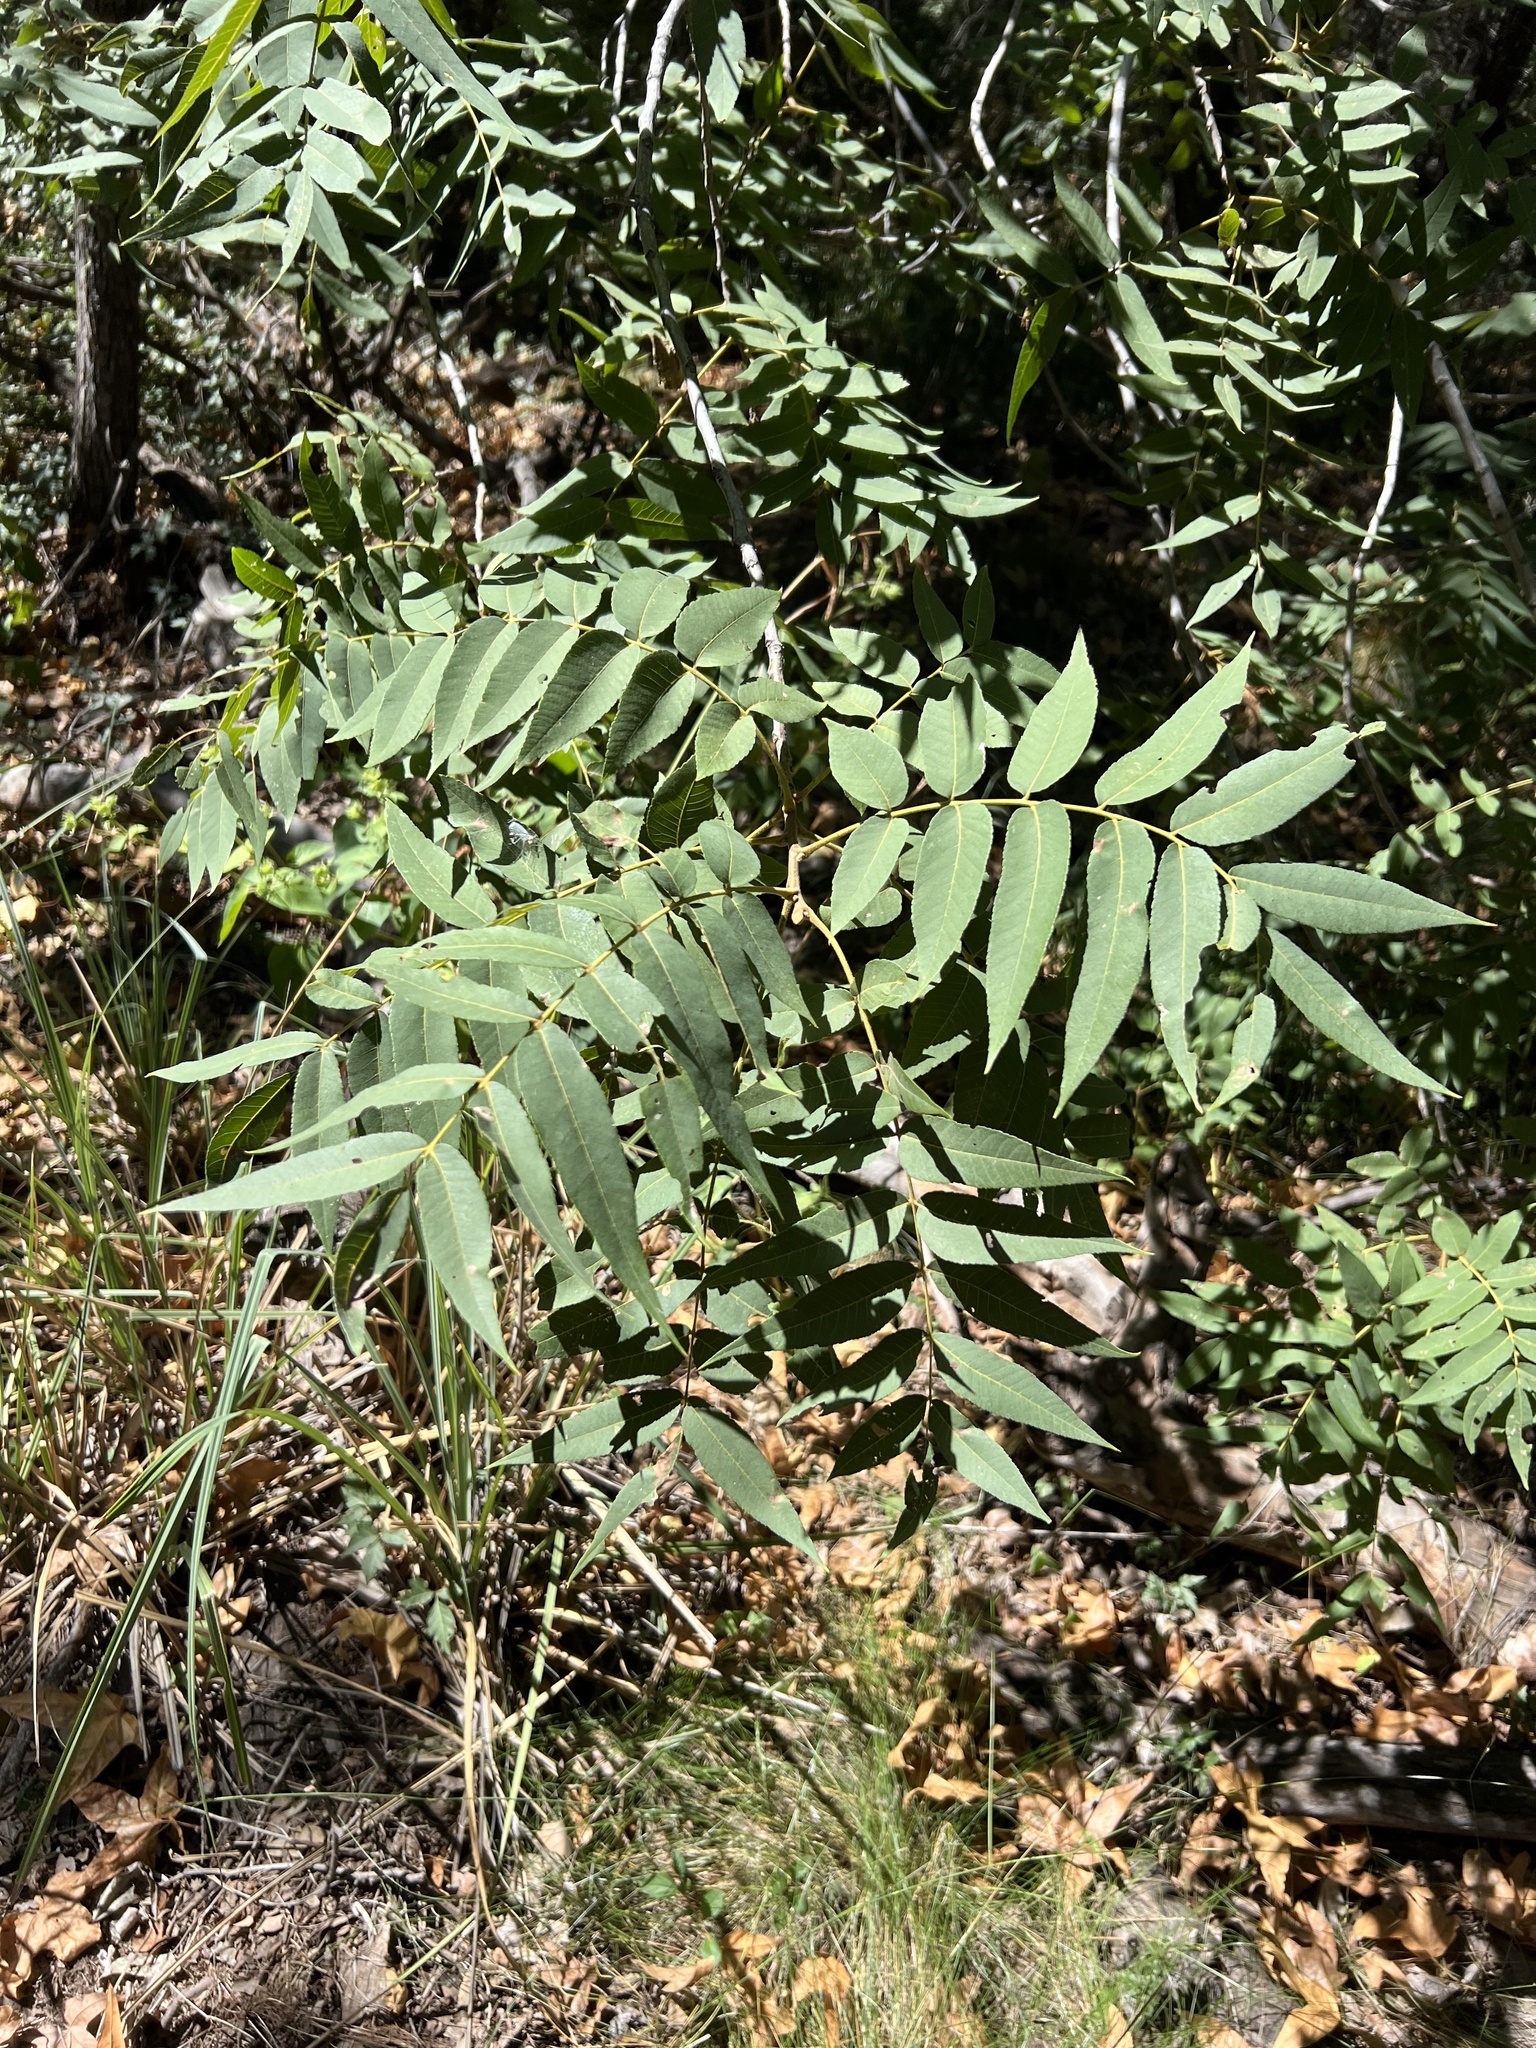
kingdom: Plantae
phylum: Tracheophyta
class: Magnoliopsida
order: Fagales
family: Juglandaceae
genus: Juglans
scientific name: Juglans major
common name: Arizona walnut
